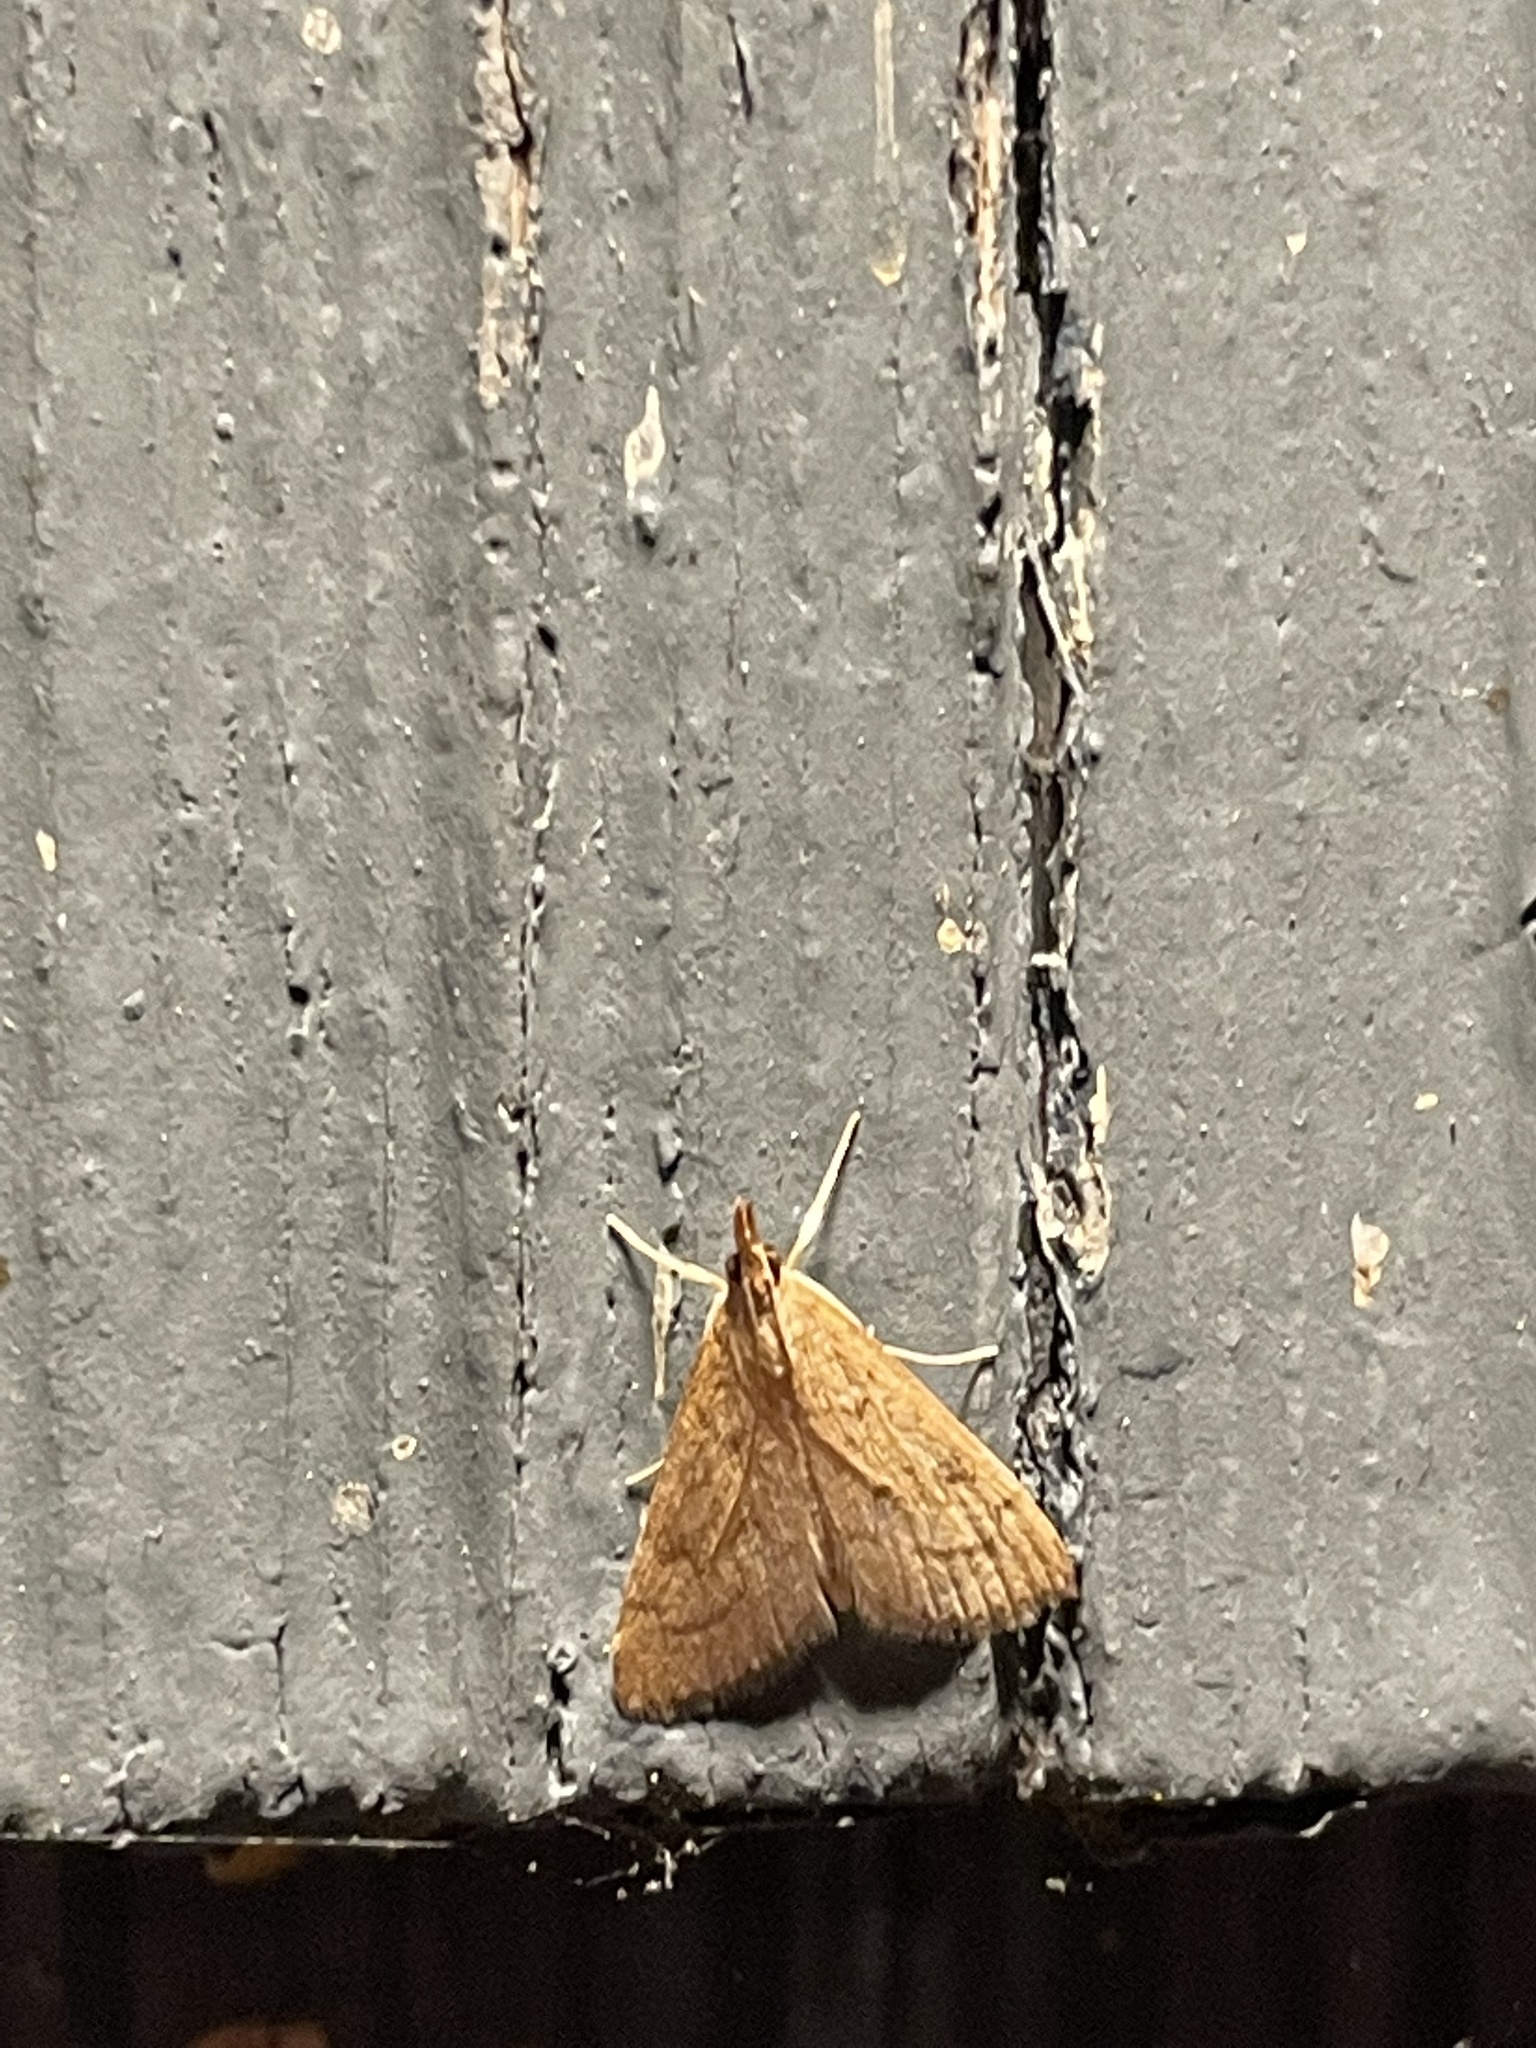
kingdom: Animalia
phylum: Arthropoda
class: Insecta
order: Lepidoptera
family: Crambidae
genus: Udea
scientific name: Udea rubigalis
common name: Celery leaftier moth
